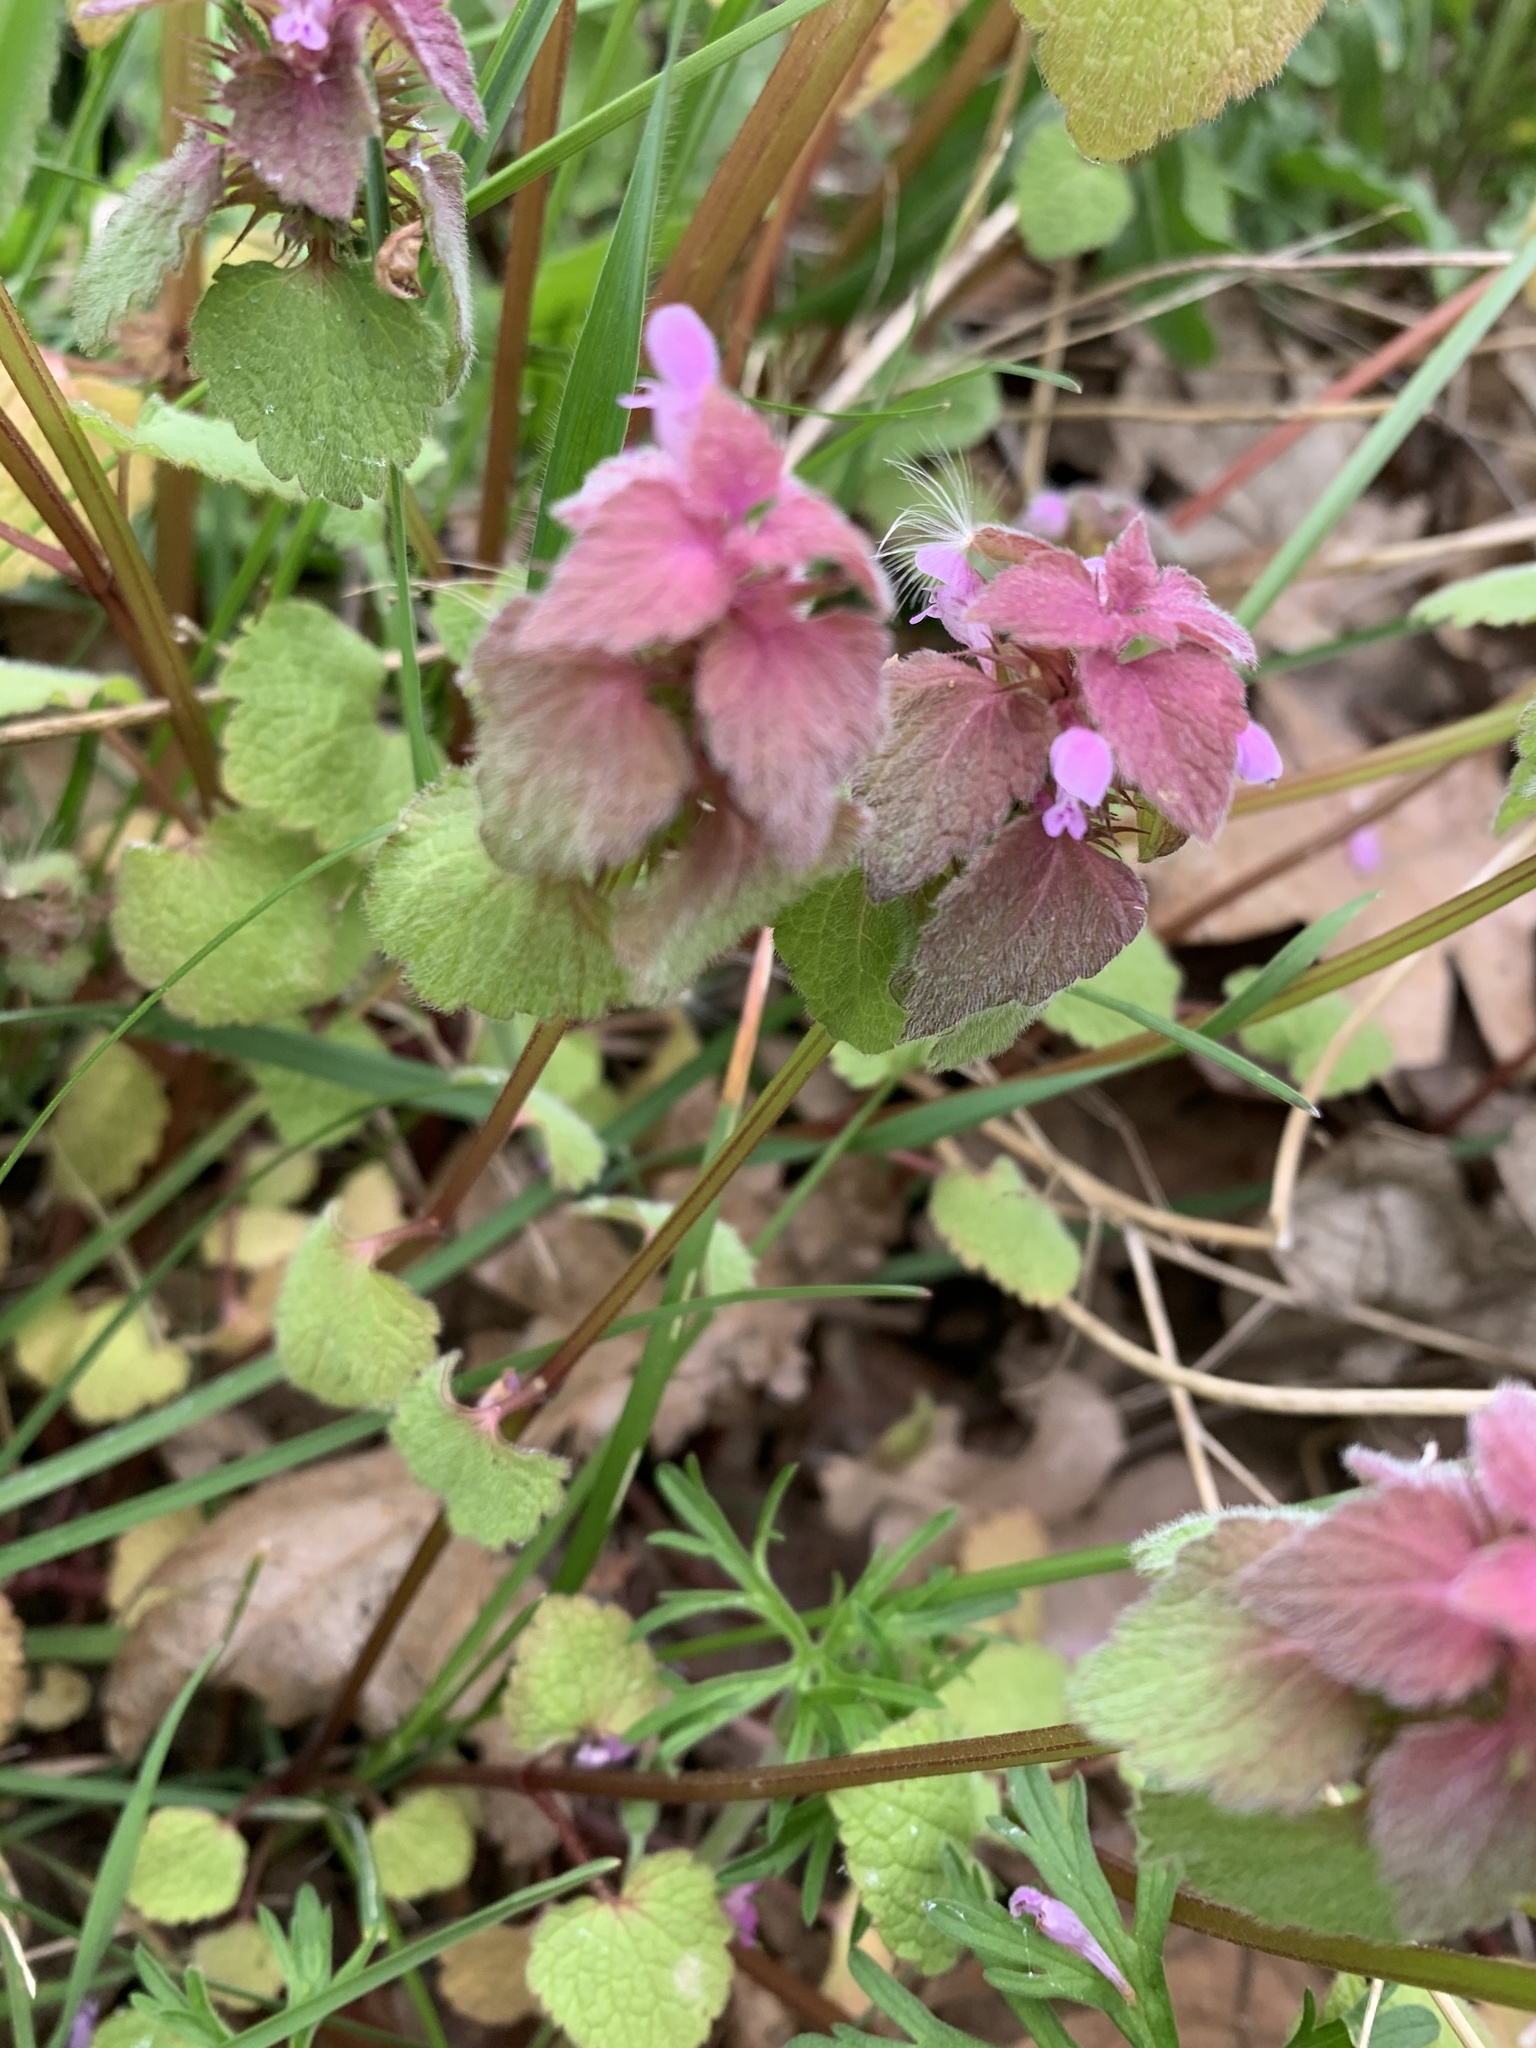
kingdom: Plantae
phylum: Tracheophyta
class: Magnoliopsida
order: Lamiales
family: Lamiaceae
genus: Lamium
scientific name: Lamium purpureum
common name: Red dead-nettle
